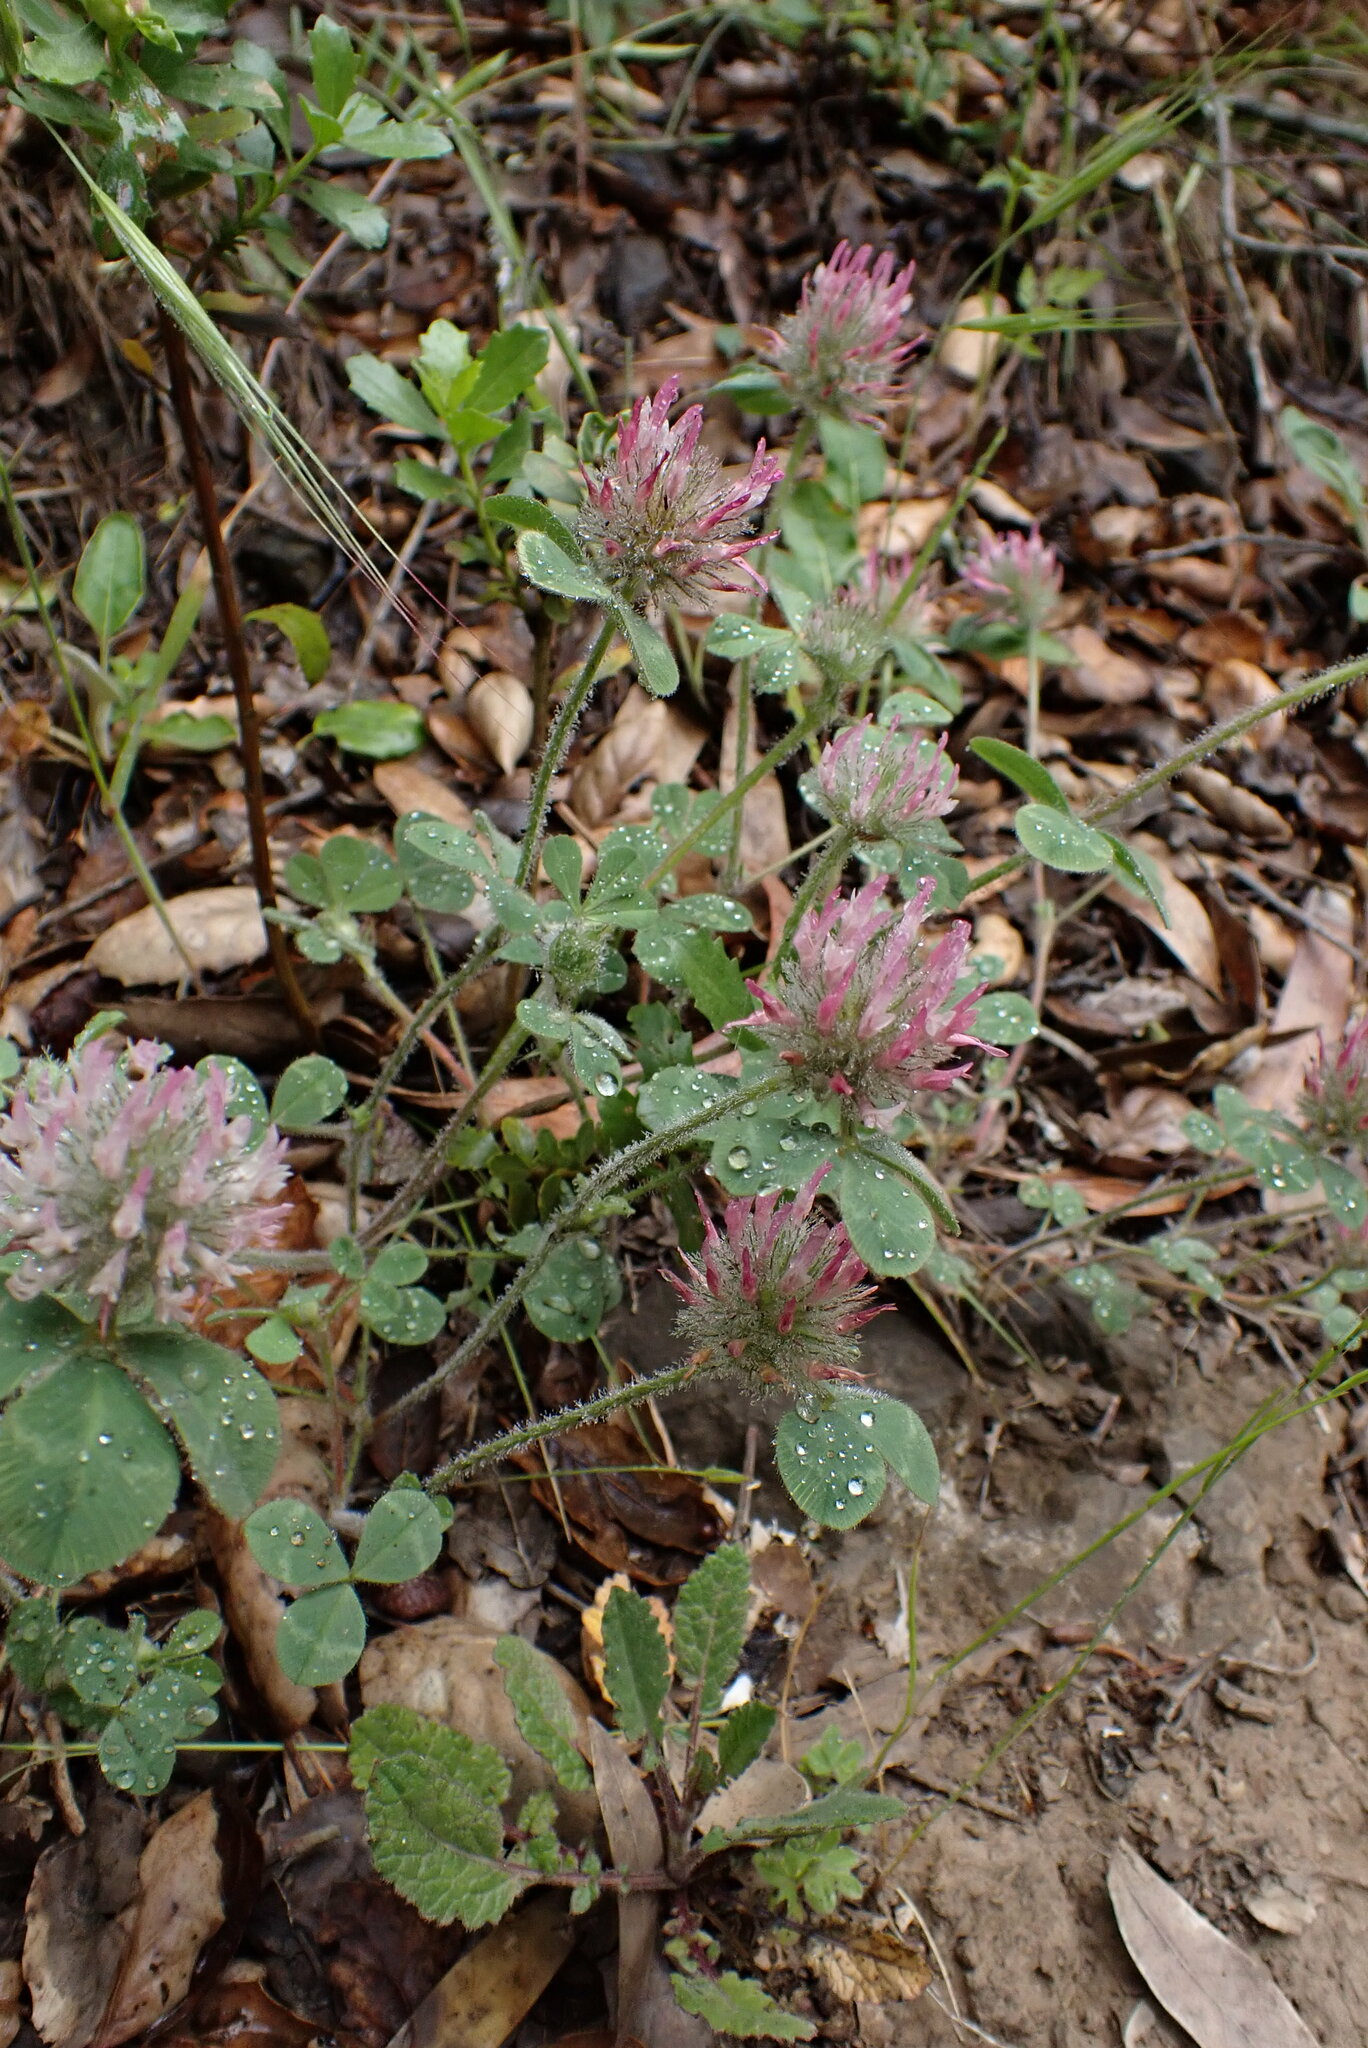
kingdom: Plantae
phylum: Tracheophyta
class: Magnoliopsida
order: Fabales
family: Fabaceae
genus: Trifolium
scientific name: Trifolium hirtum
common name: Rose clover
